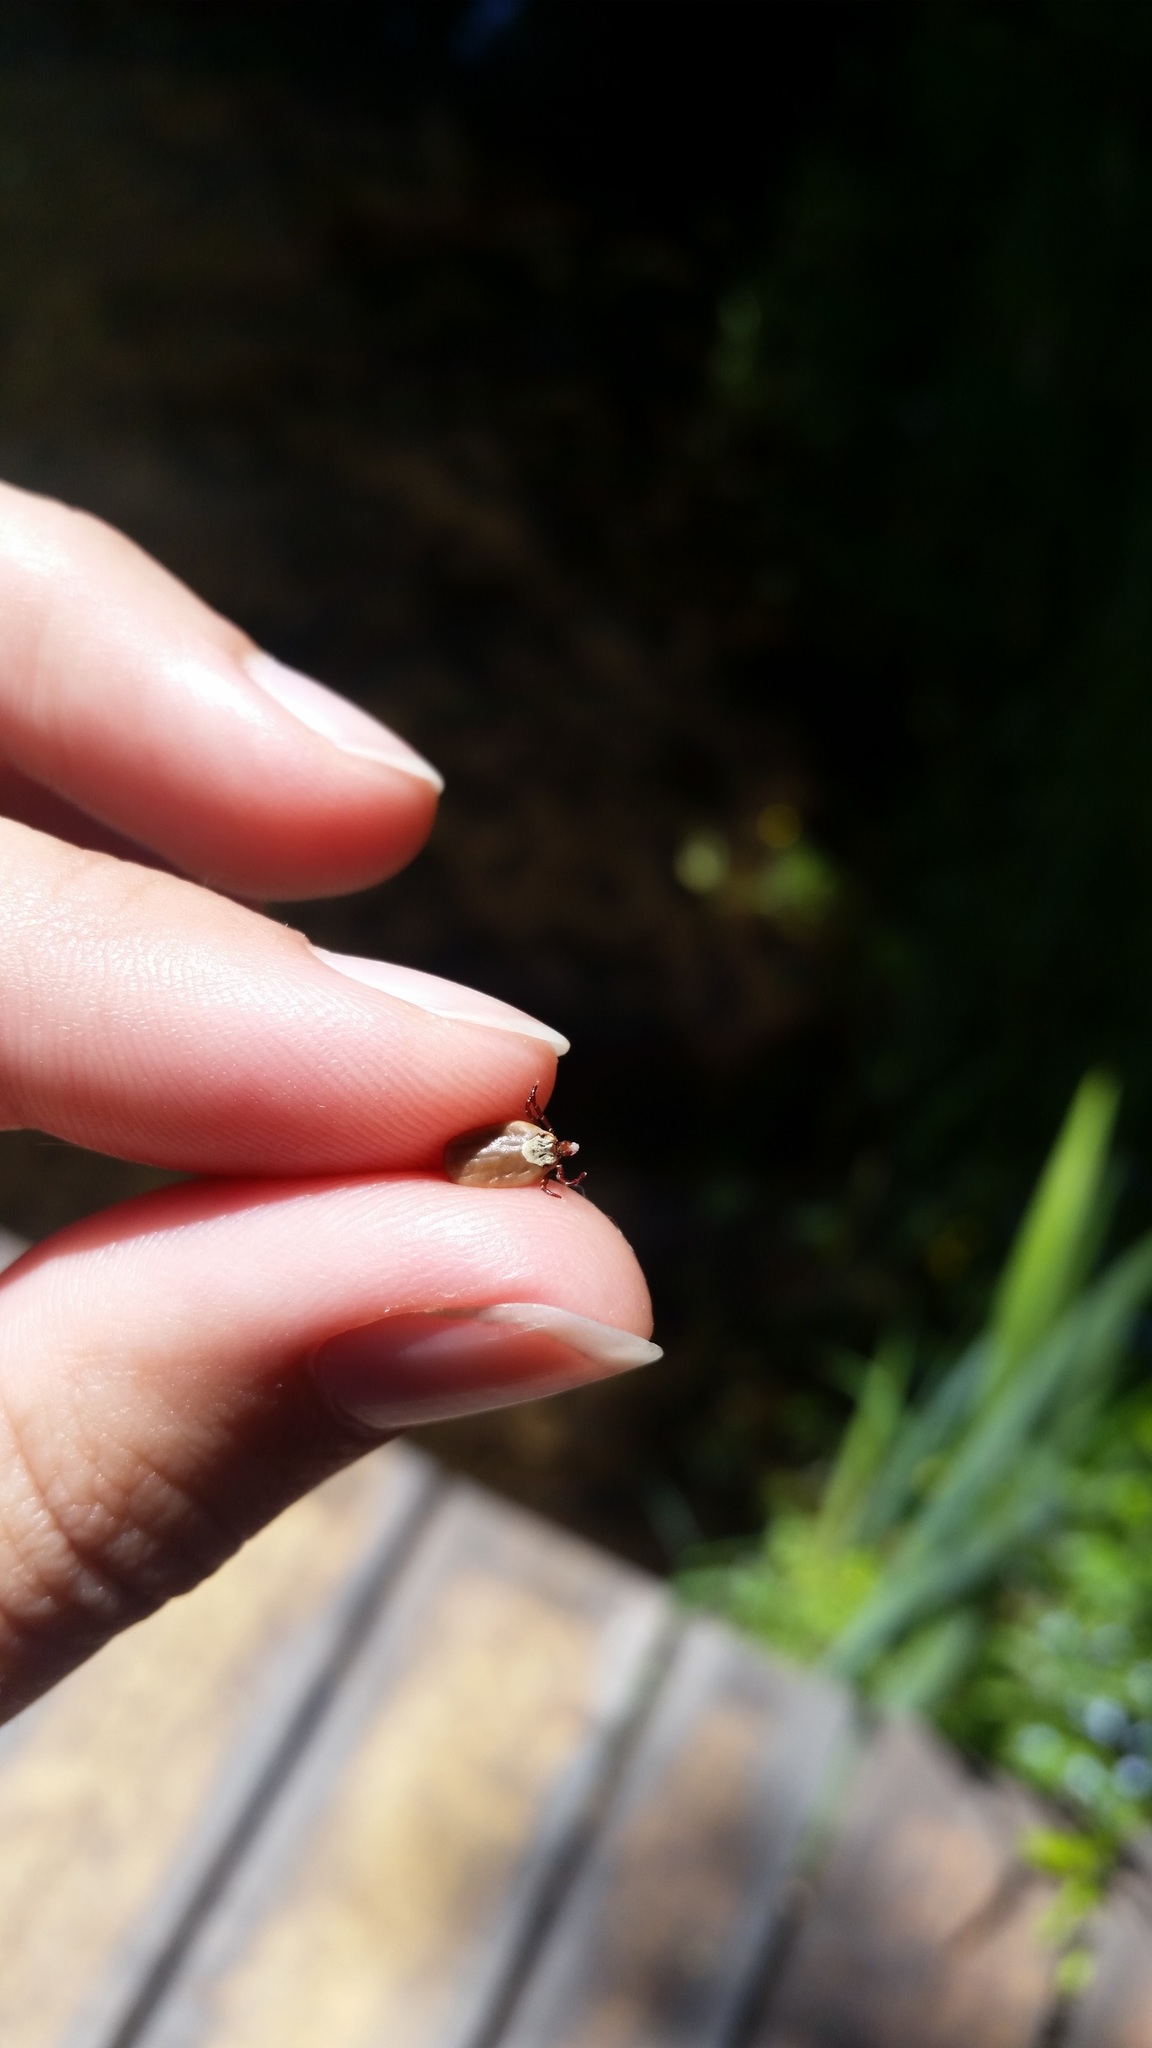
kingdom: Animalia
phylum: Arthropoda
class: Arachnida
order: Ixodida
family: Ixodidae
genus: Dermacentor
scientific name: Dermacentor variabilis
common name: American dog tick
